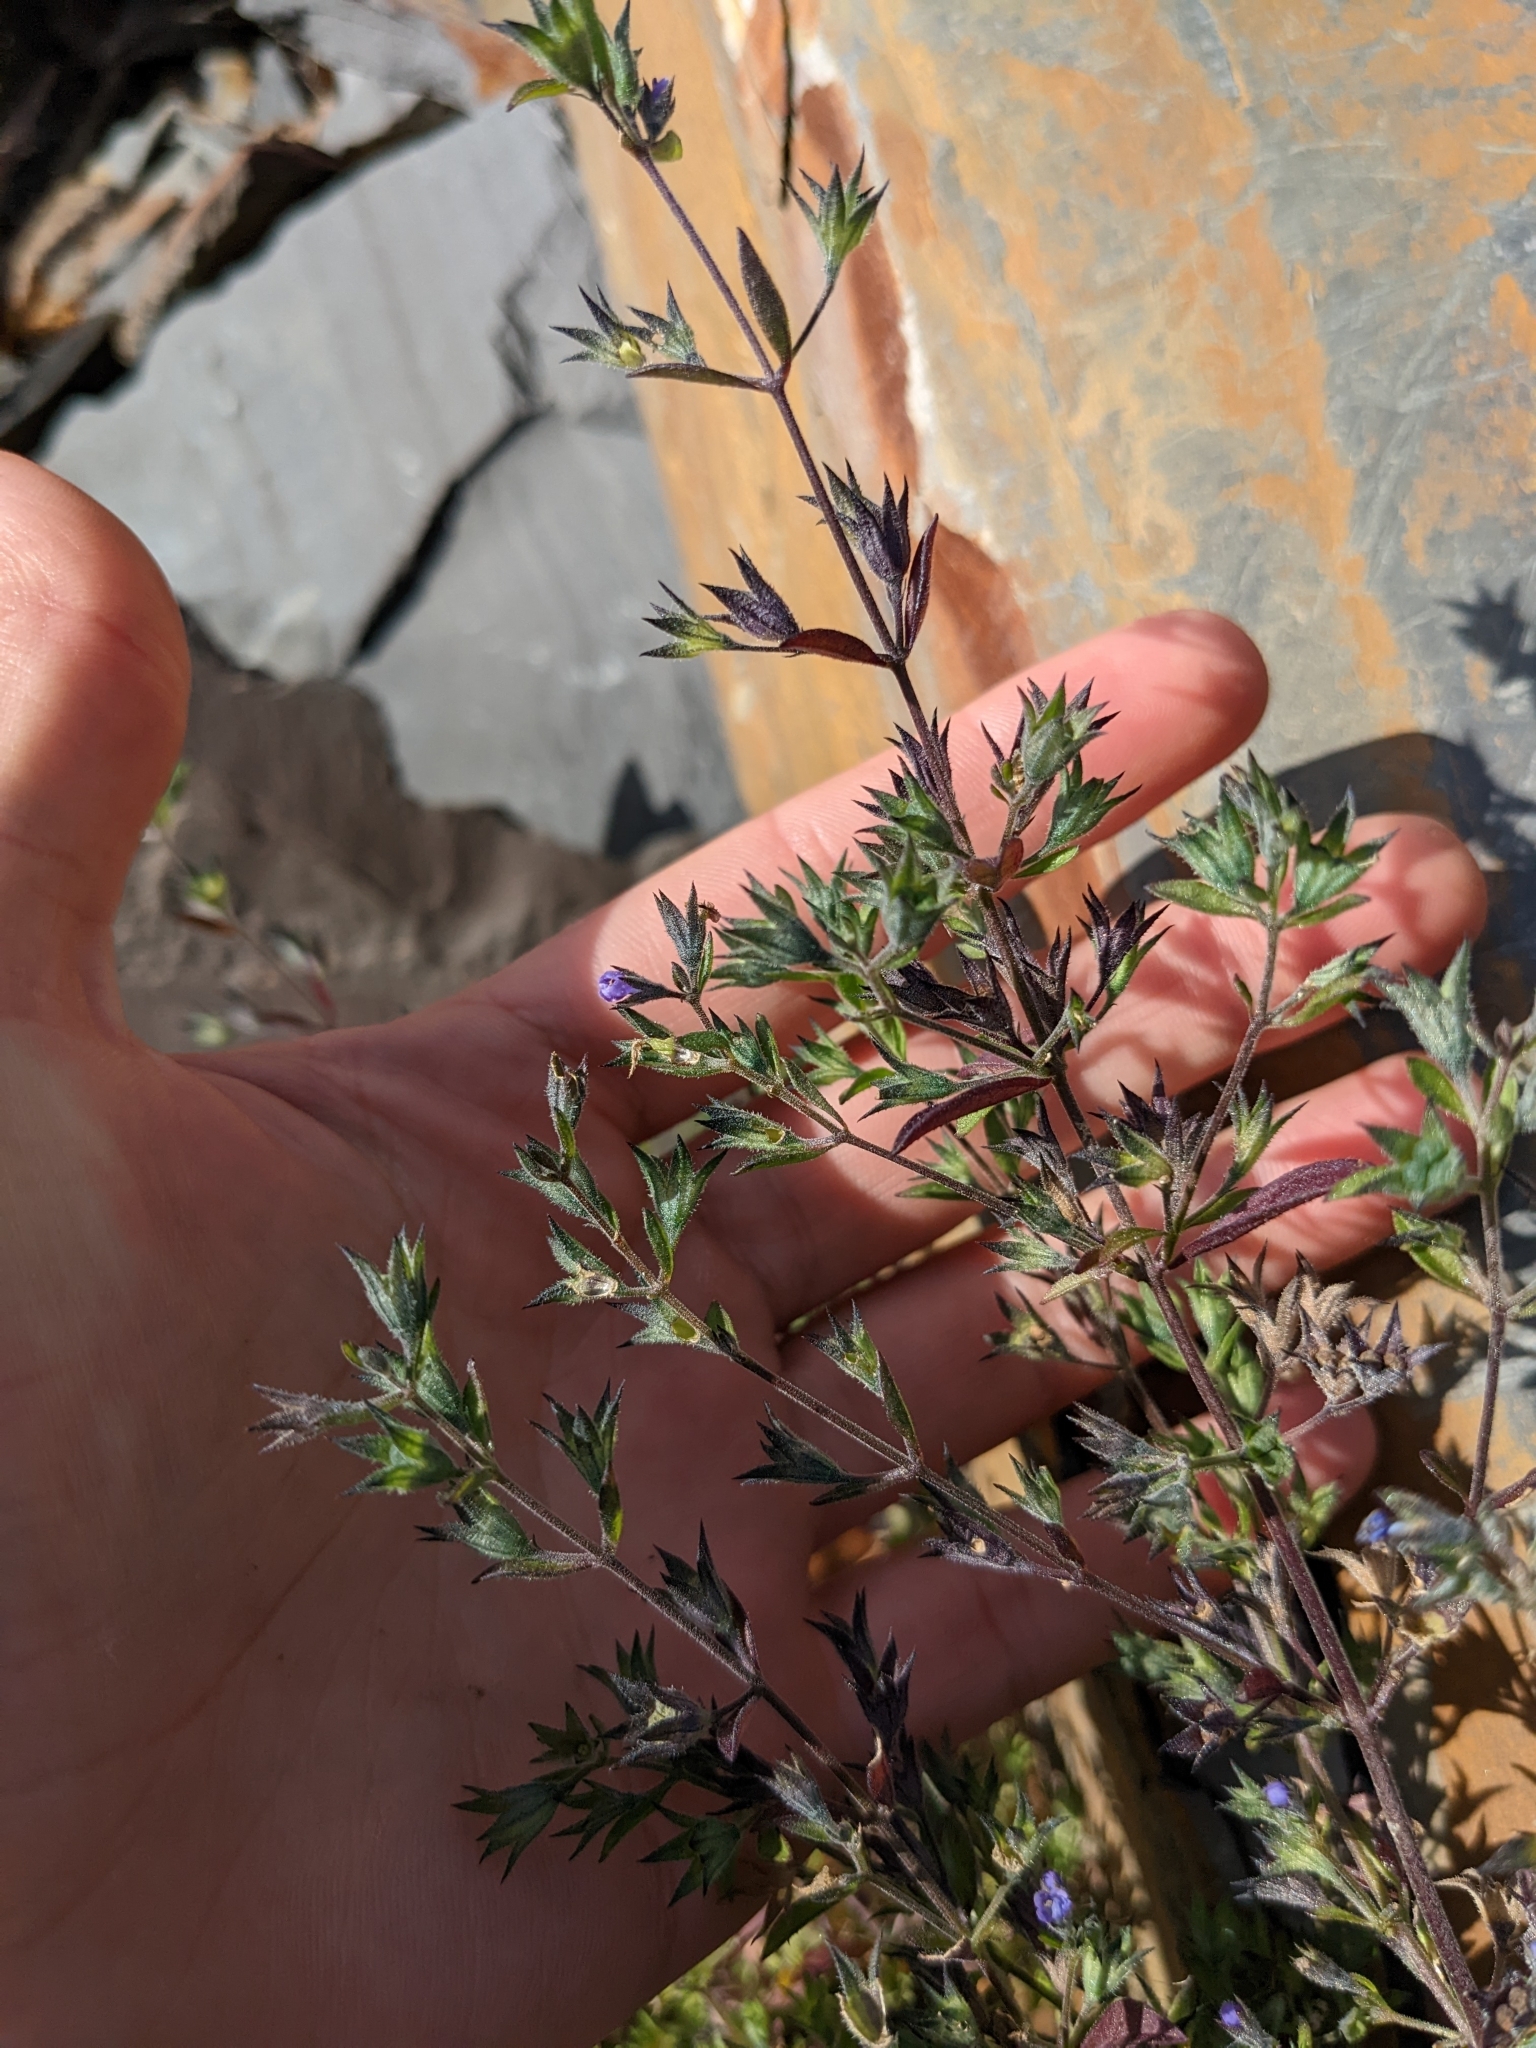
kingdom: Plantae
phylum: Tracheophyta
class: Magnoliopsida
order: Lamiales
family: Lamiaceae
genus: Trichostema
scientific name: Trichostema brachiatum
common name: False pennyroyal
